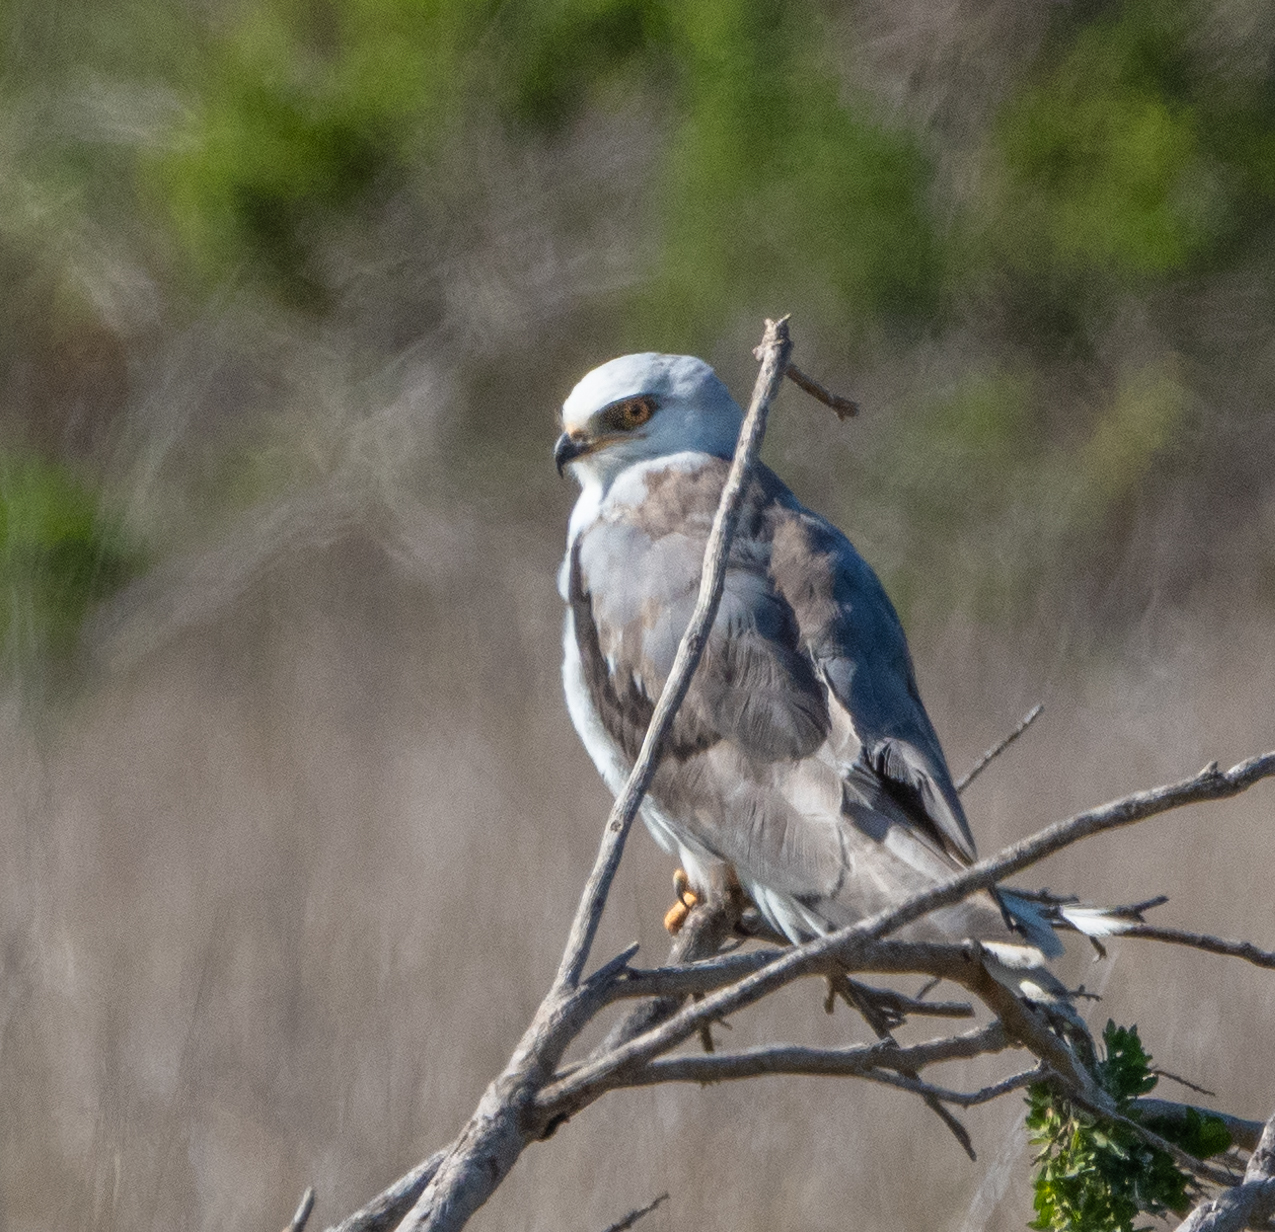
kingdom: Animalia
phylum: Chordata
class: Aves
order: Accipitriformes
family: Accipitridae
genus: Elanus
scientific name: Elanus leucurus
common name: White-tailed kite
